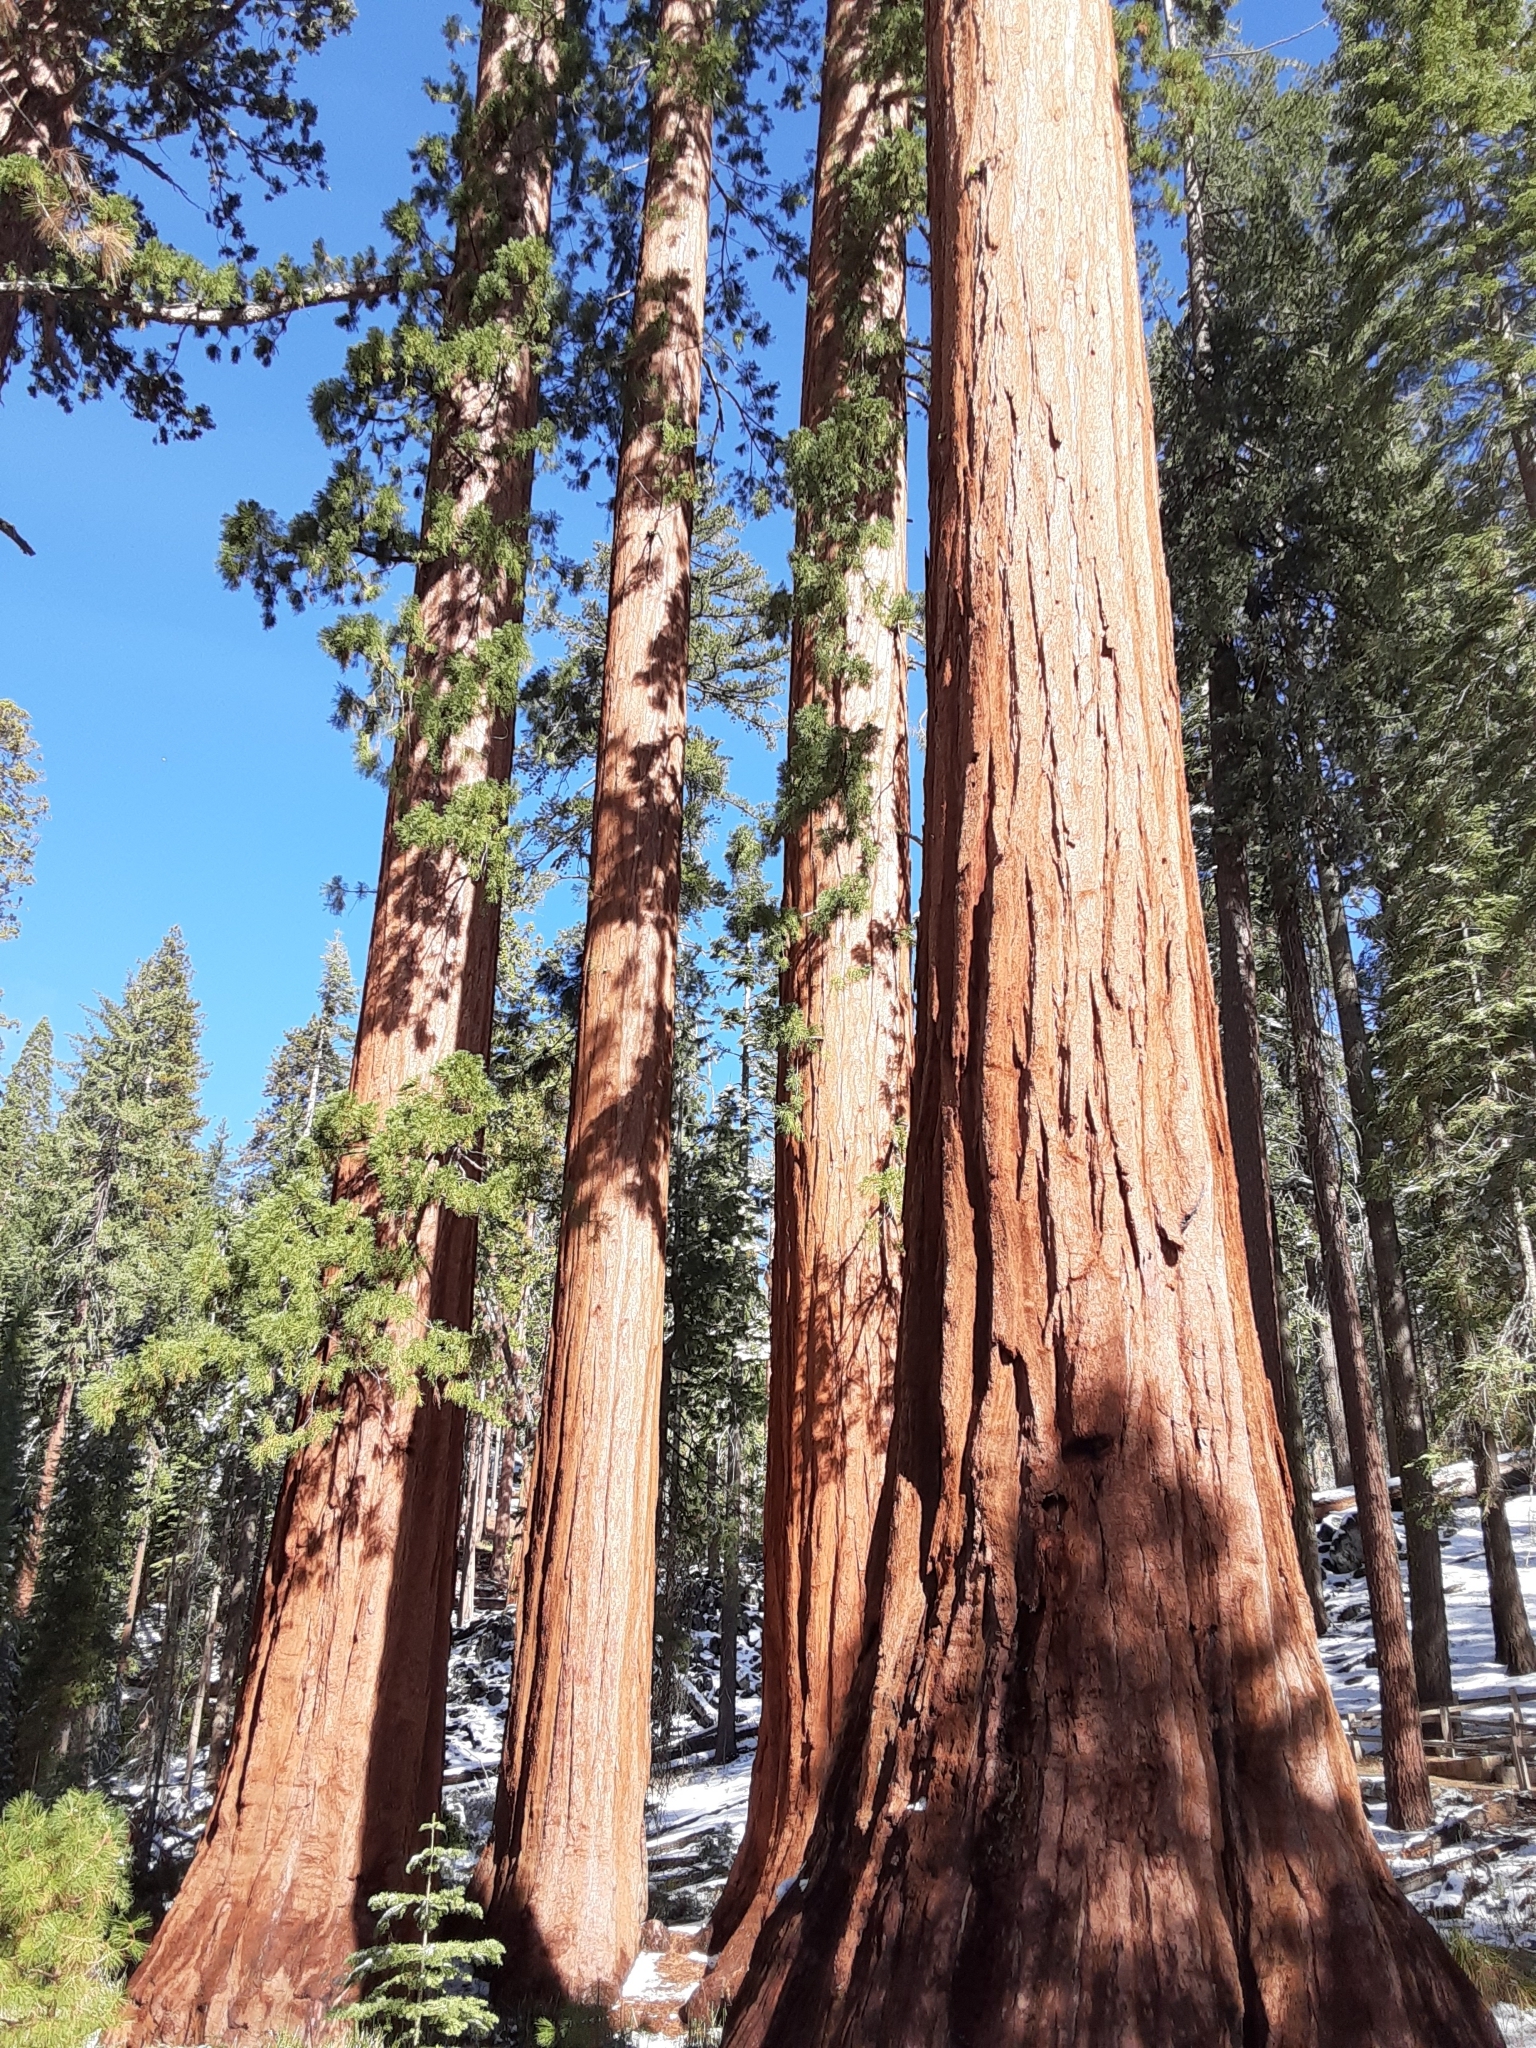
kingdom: Plantae
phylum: Tracheophyta
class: Pinopsida
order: Pinales
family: Cupressaceae
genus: Sequoiadendron
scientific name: Sequoiadendron giganteum
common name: Wellingtonia
